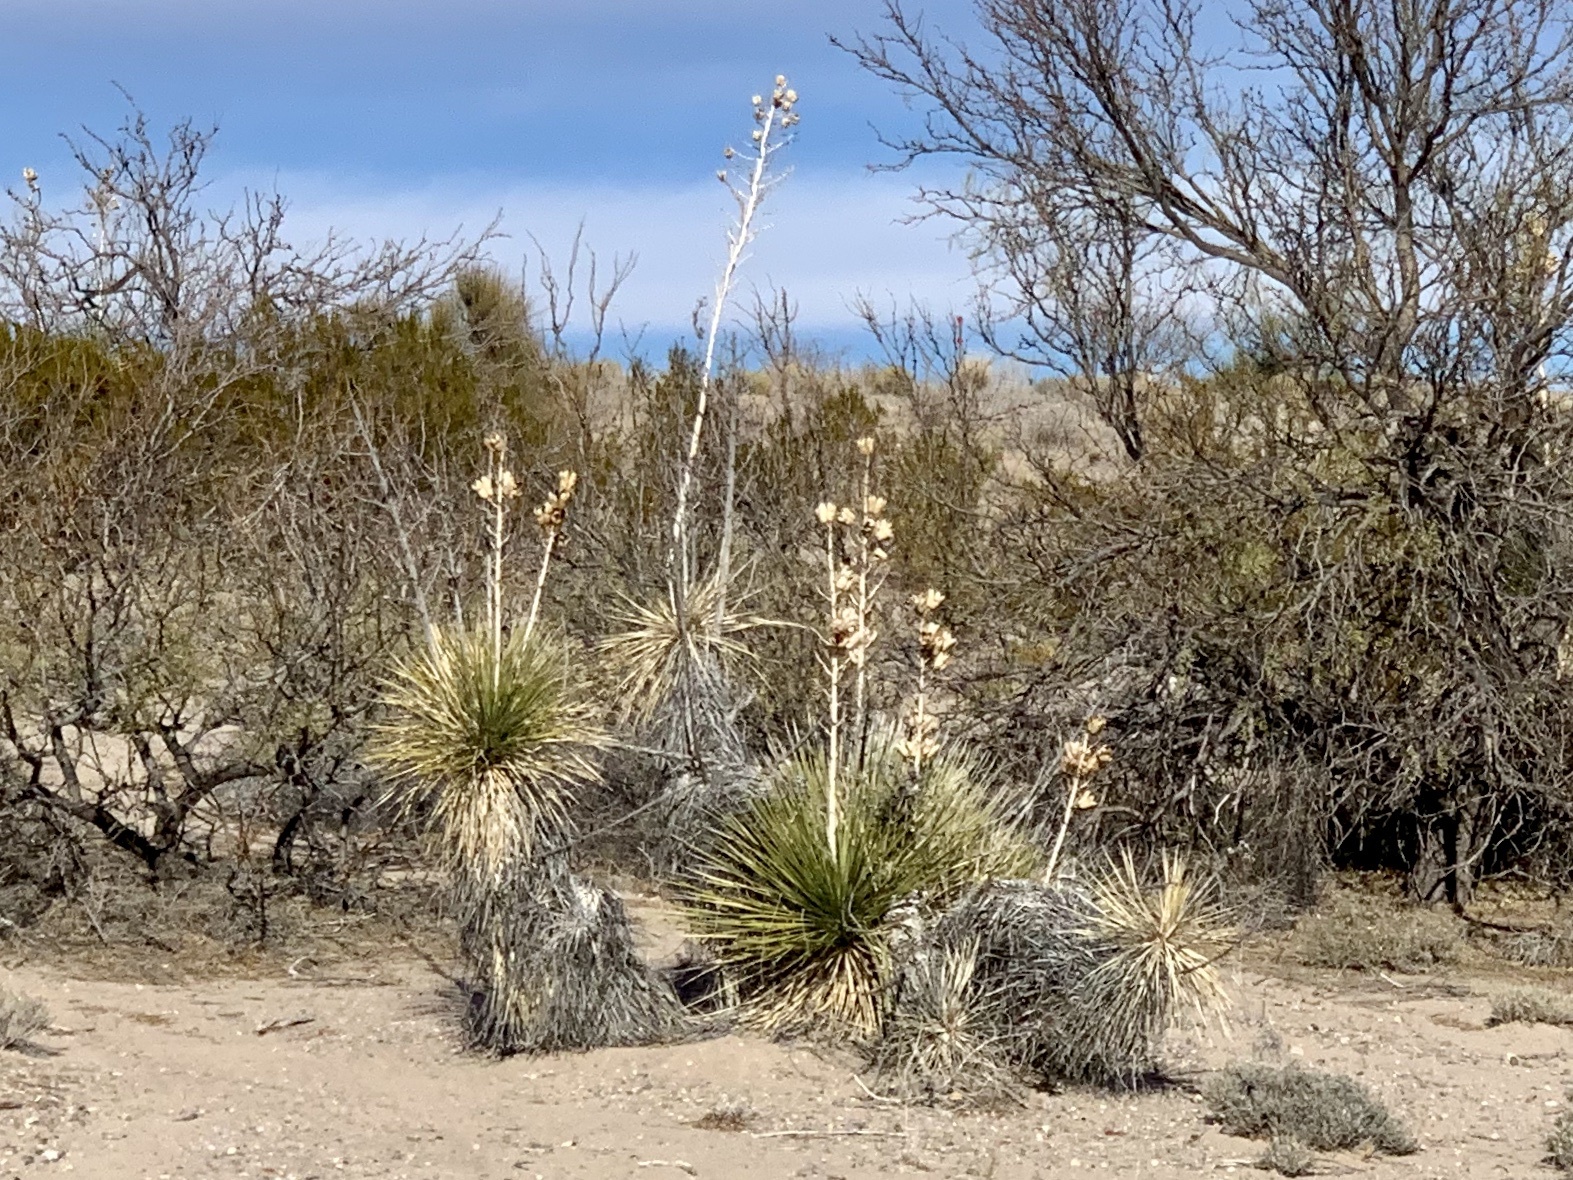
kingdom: Plantae
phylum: Tracheophyta
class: Liliopsida
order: Asparagales
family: Asparagaceae
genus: Yucca
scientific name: Yucca elata
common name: Palmella
